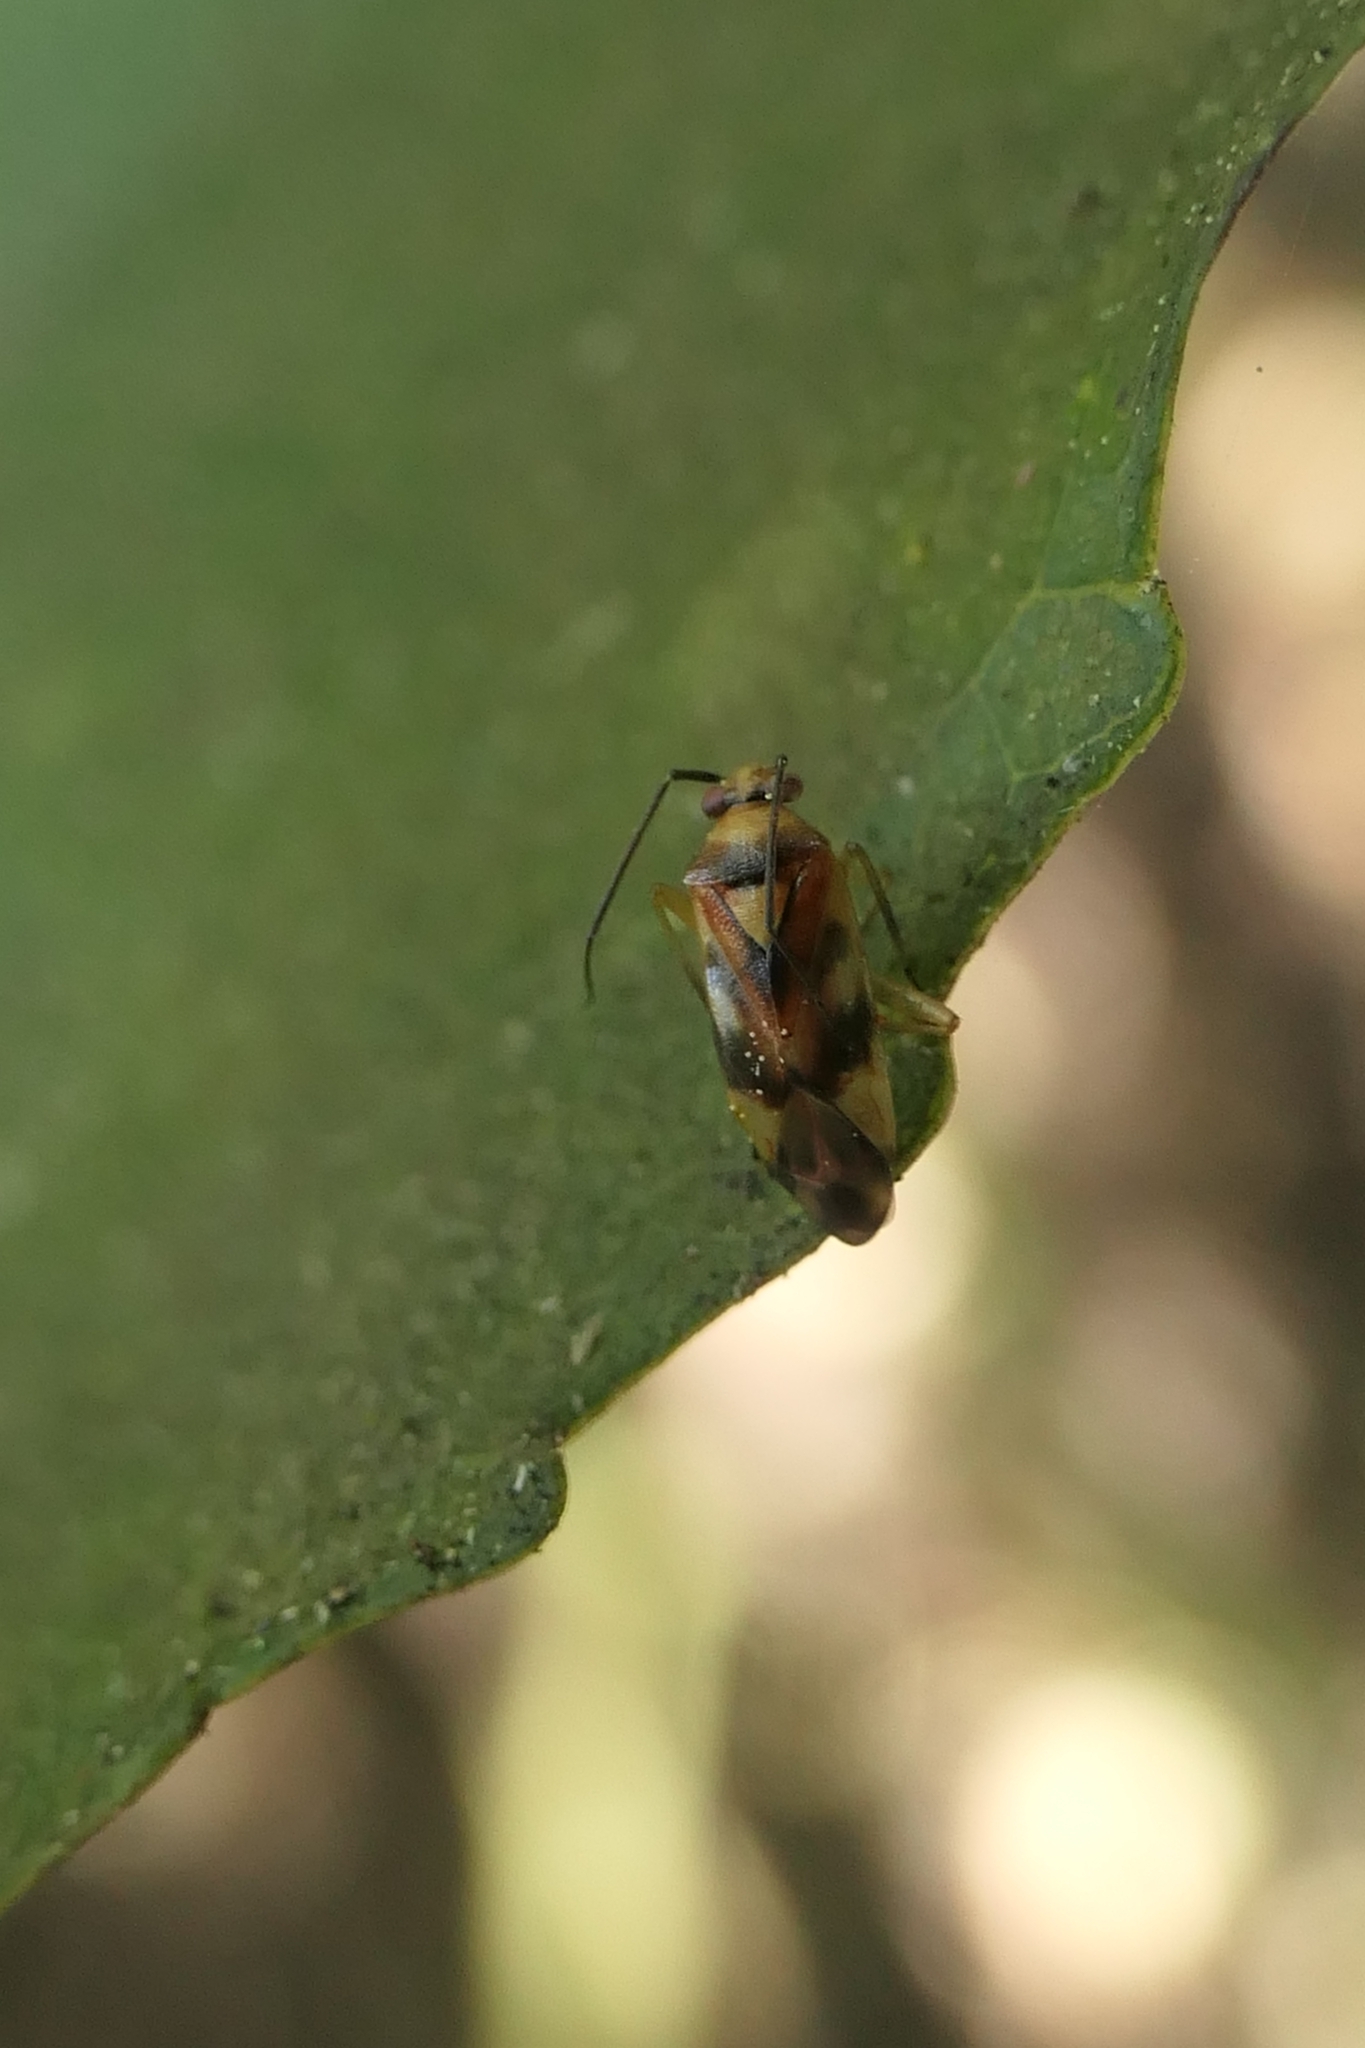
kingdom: Animalia
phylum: Arthropoda
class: Insecta
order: Hemiptera
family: Miridae
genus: Tuicoris
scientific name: Tuicoris excelsus
